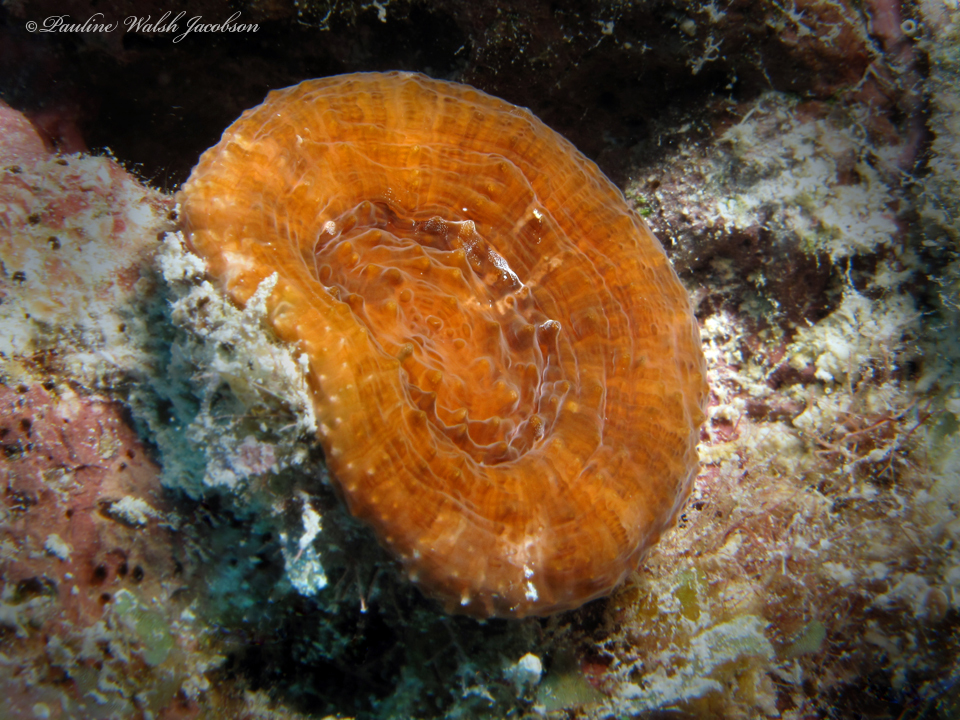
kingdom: Animalia
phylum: Cnidaria
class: Anthozoa
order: Scleractinia
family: Faviidae
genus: Scolymia
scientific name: Scolymia cubensis
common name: Artichoke coral
